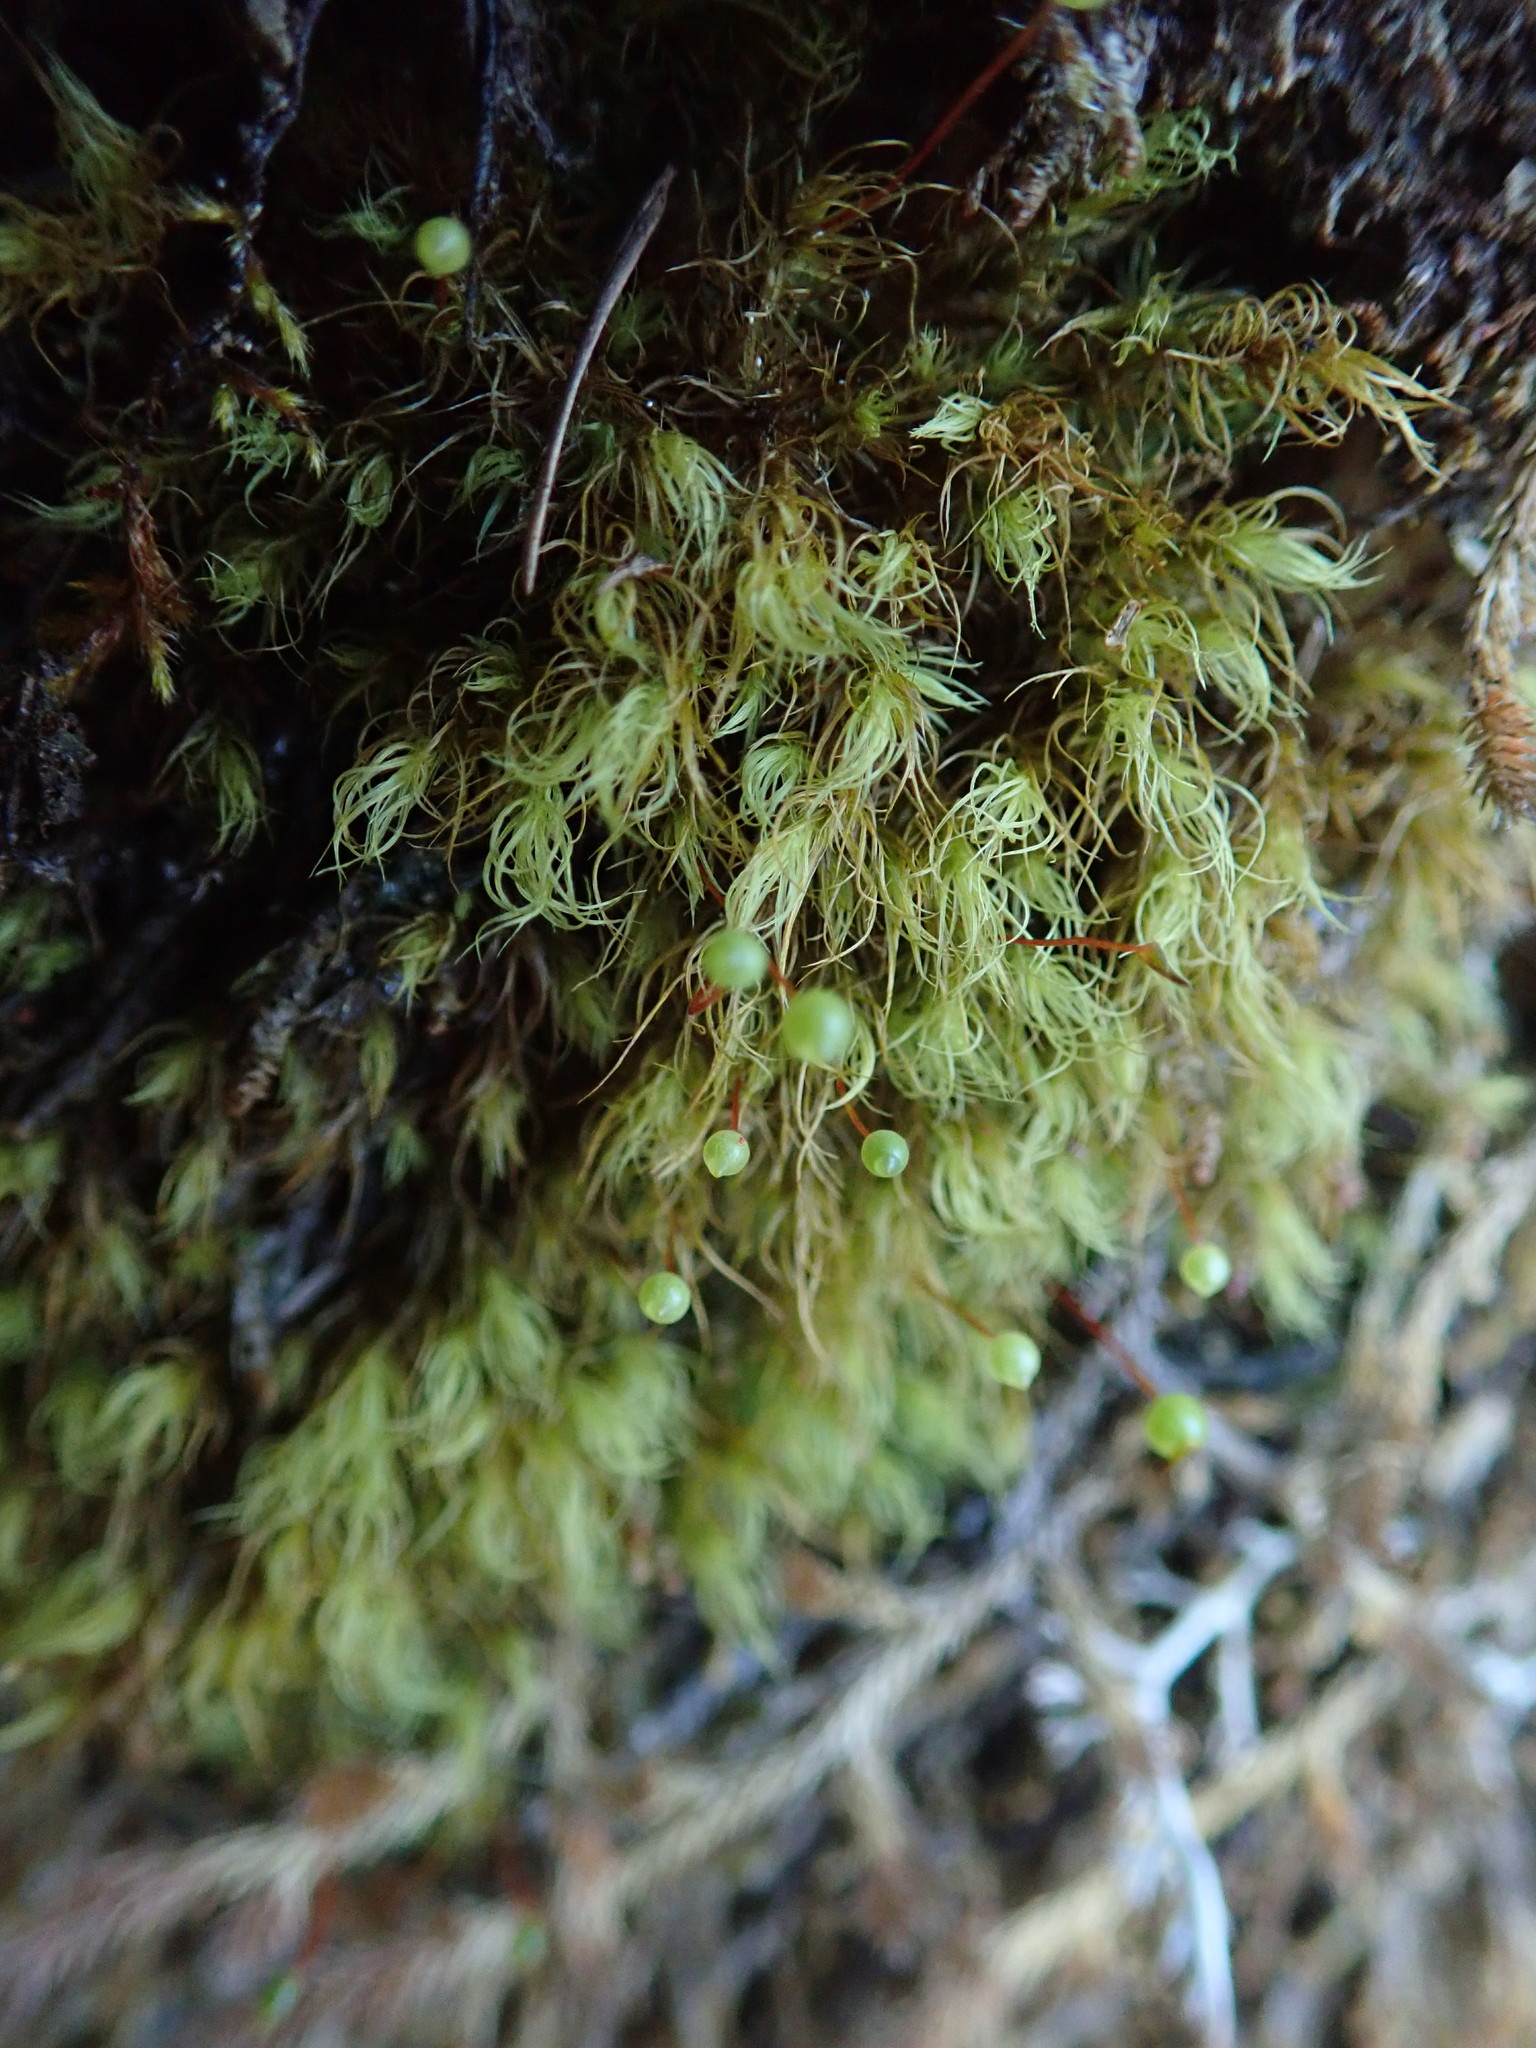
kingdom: Plantae
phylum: Bryophyta
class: Bryopsida
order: Bartramiales
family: Bartramiaceae
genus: Bartramia
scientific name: Bartramia ithyphylla
